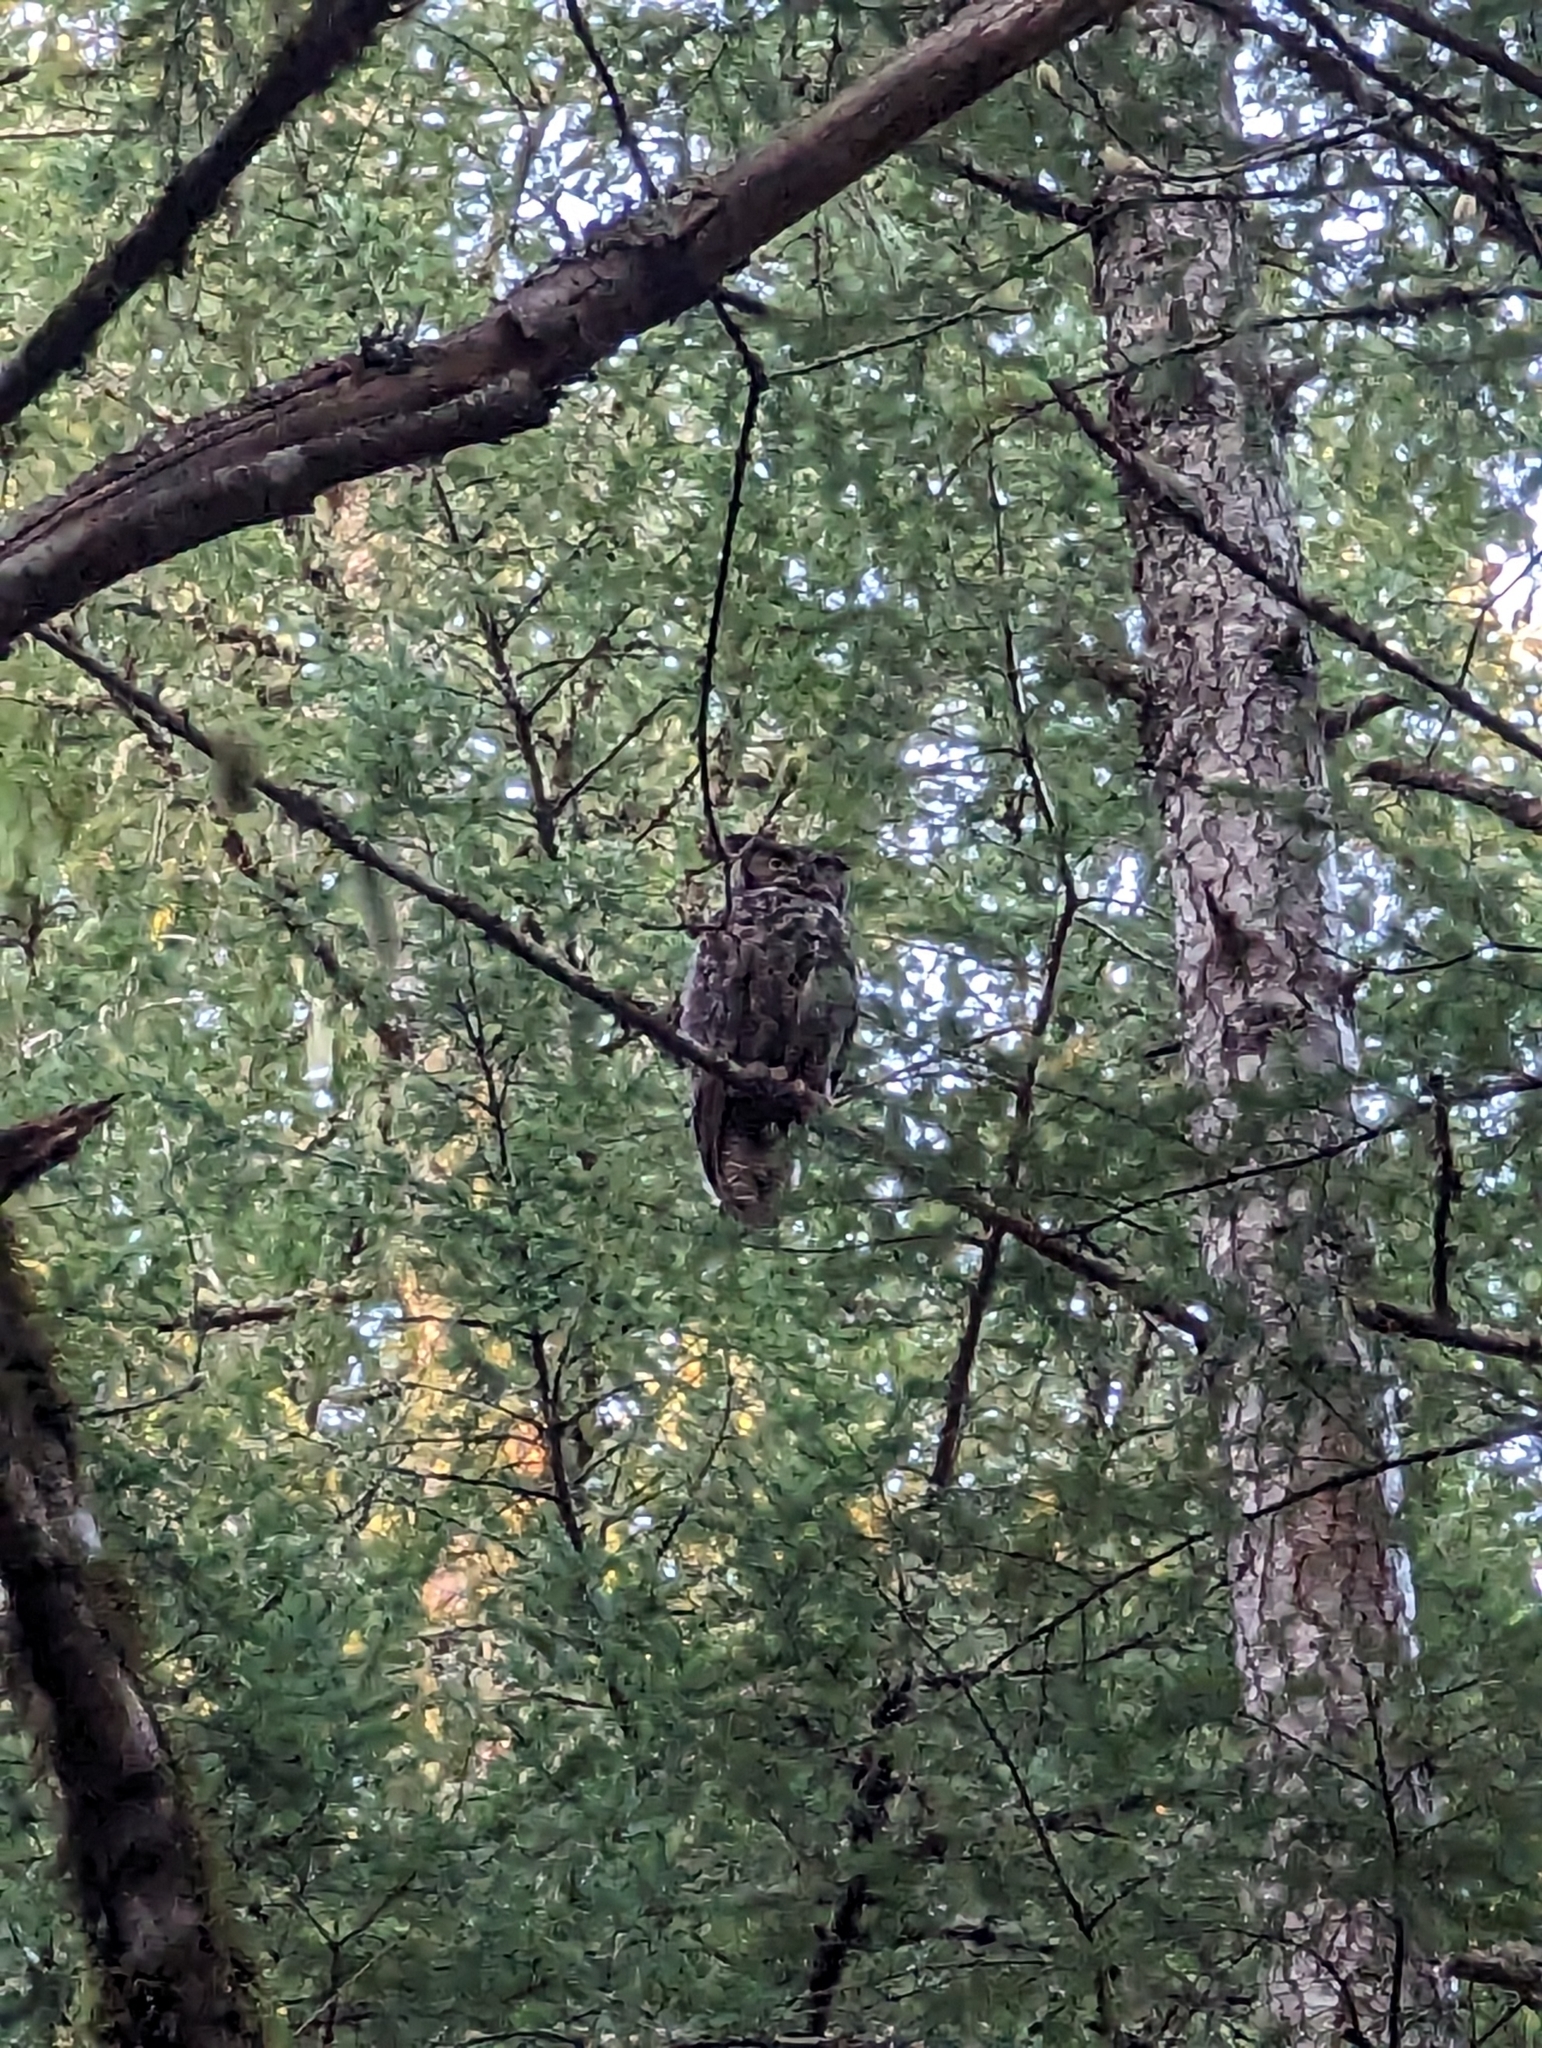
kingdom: Animalia
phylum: Chordata
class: Aves
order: Strigiformes
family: Strigidae
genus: Bubo
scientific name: Bubo virginianus
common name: Great horned owl
